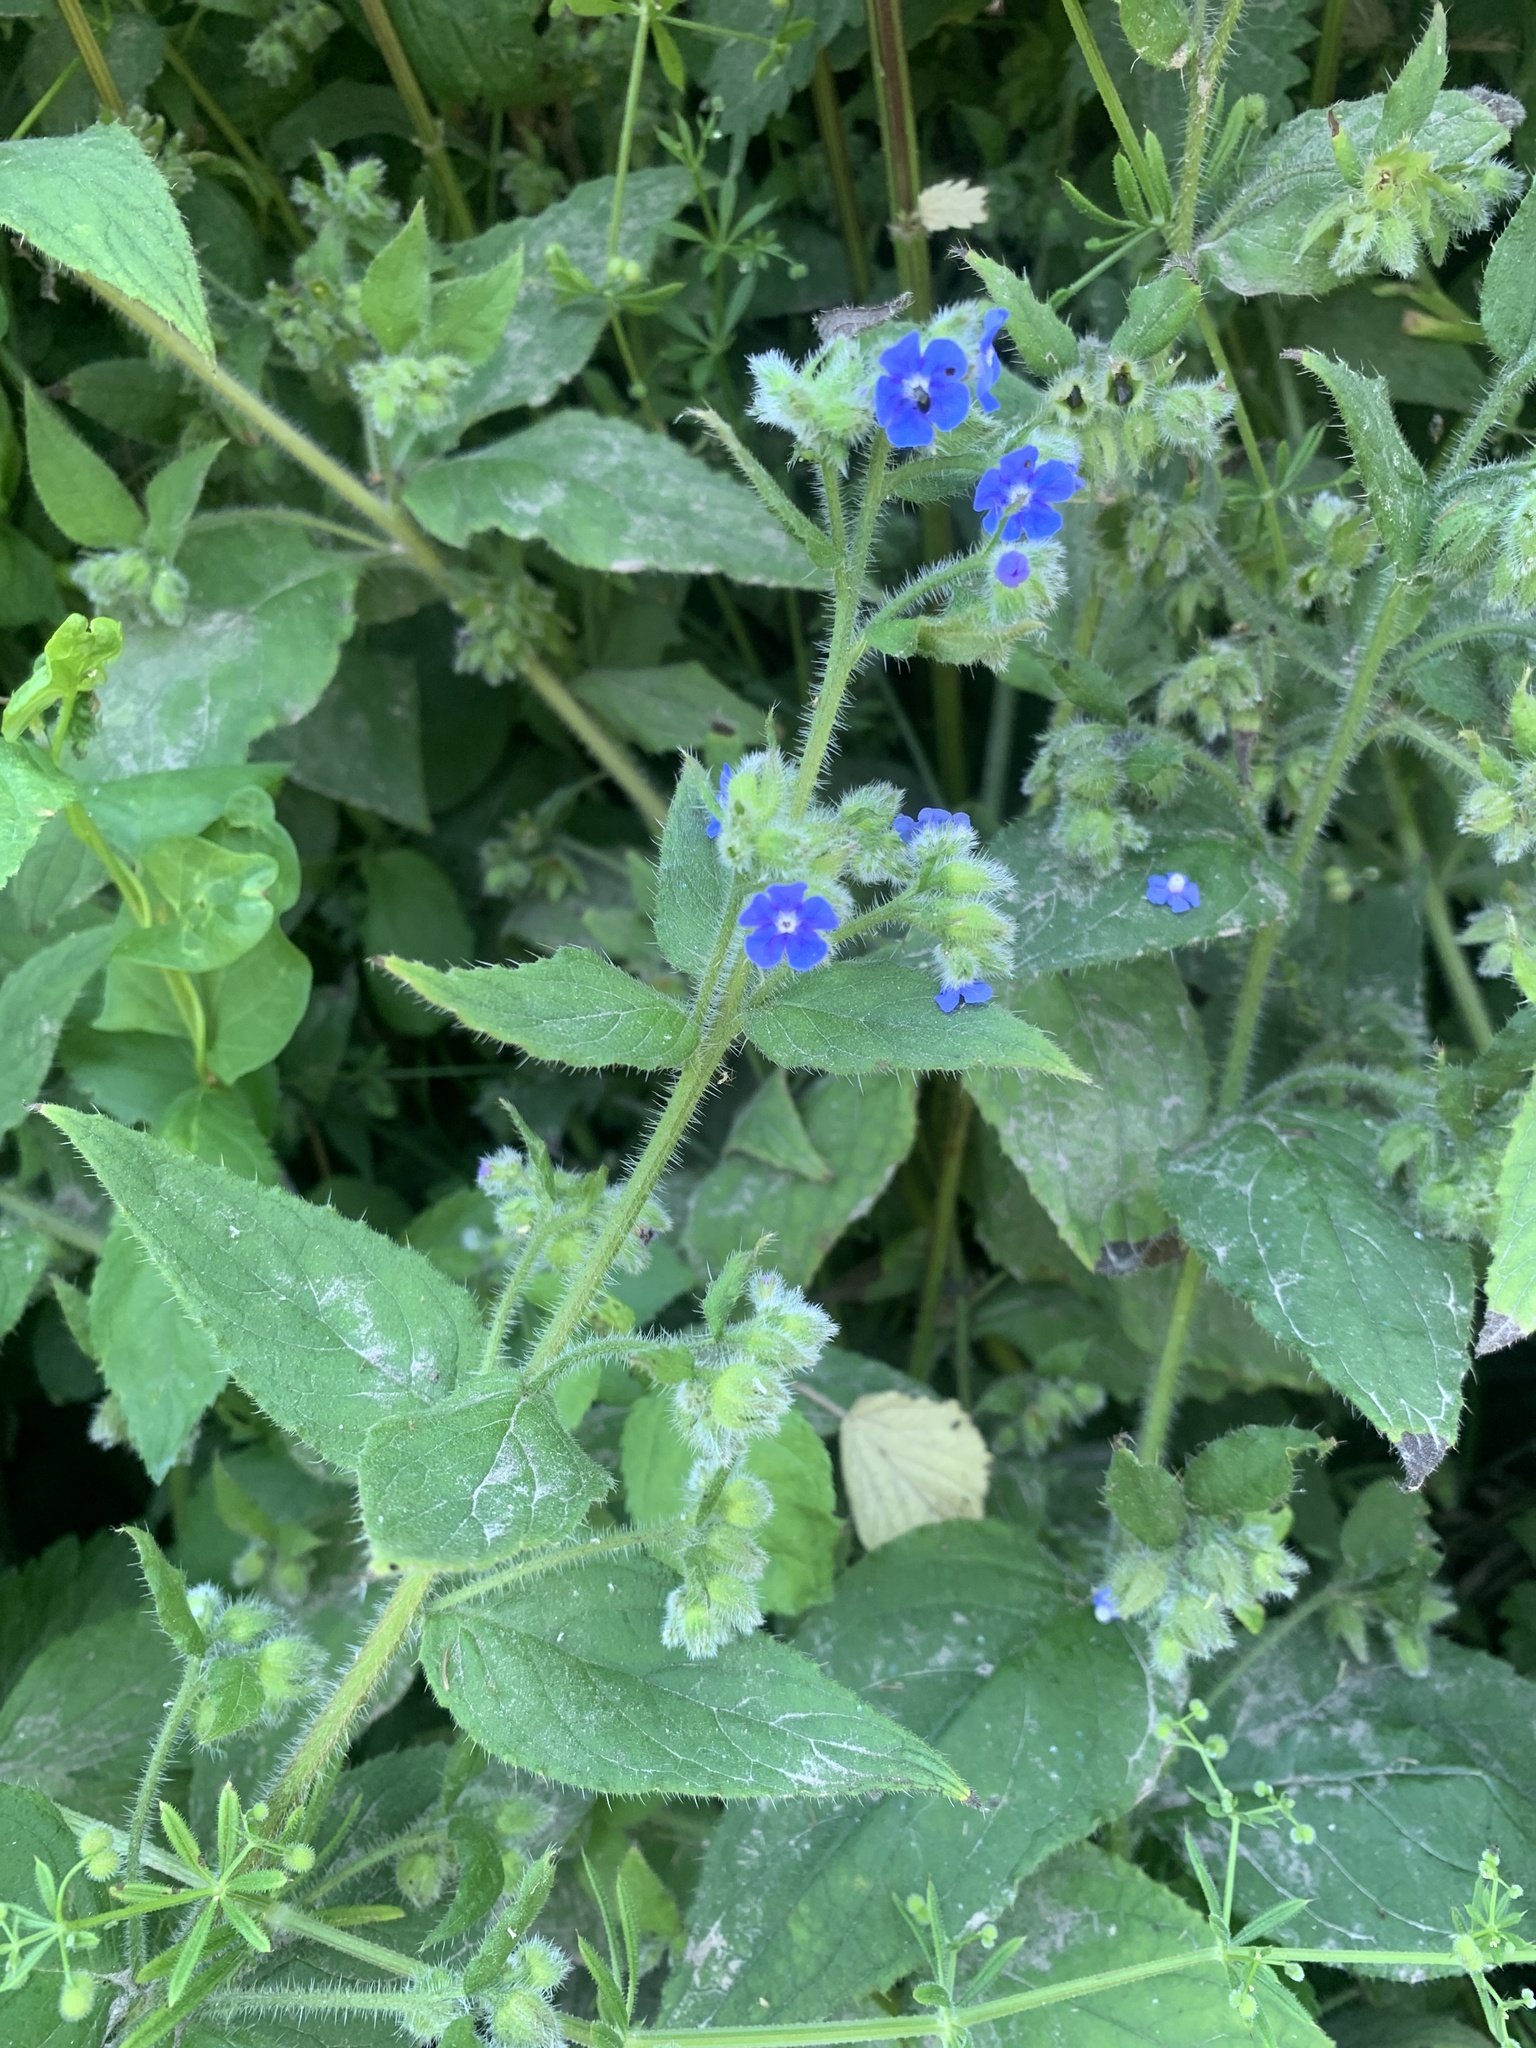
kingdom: Plantae
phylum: Tracheophyta
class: Magnoliopsida
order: Boraginales
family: Boraginaceae
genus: Pentaglottis
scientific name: Pentaglottis sempervirens
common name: Green alkanet
